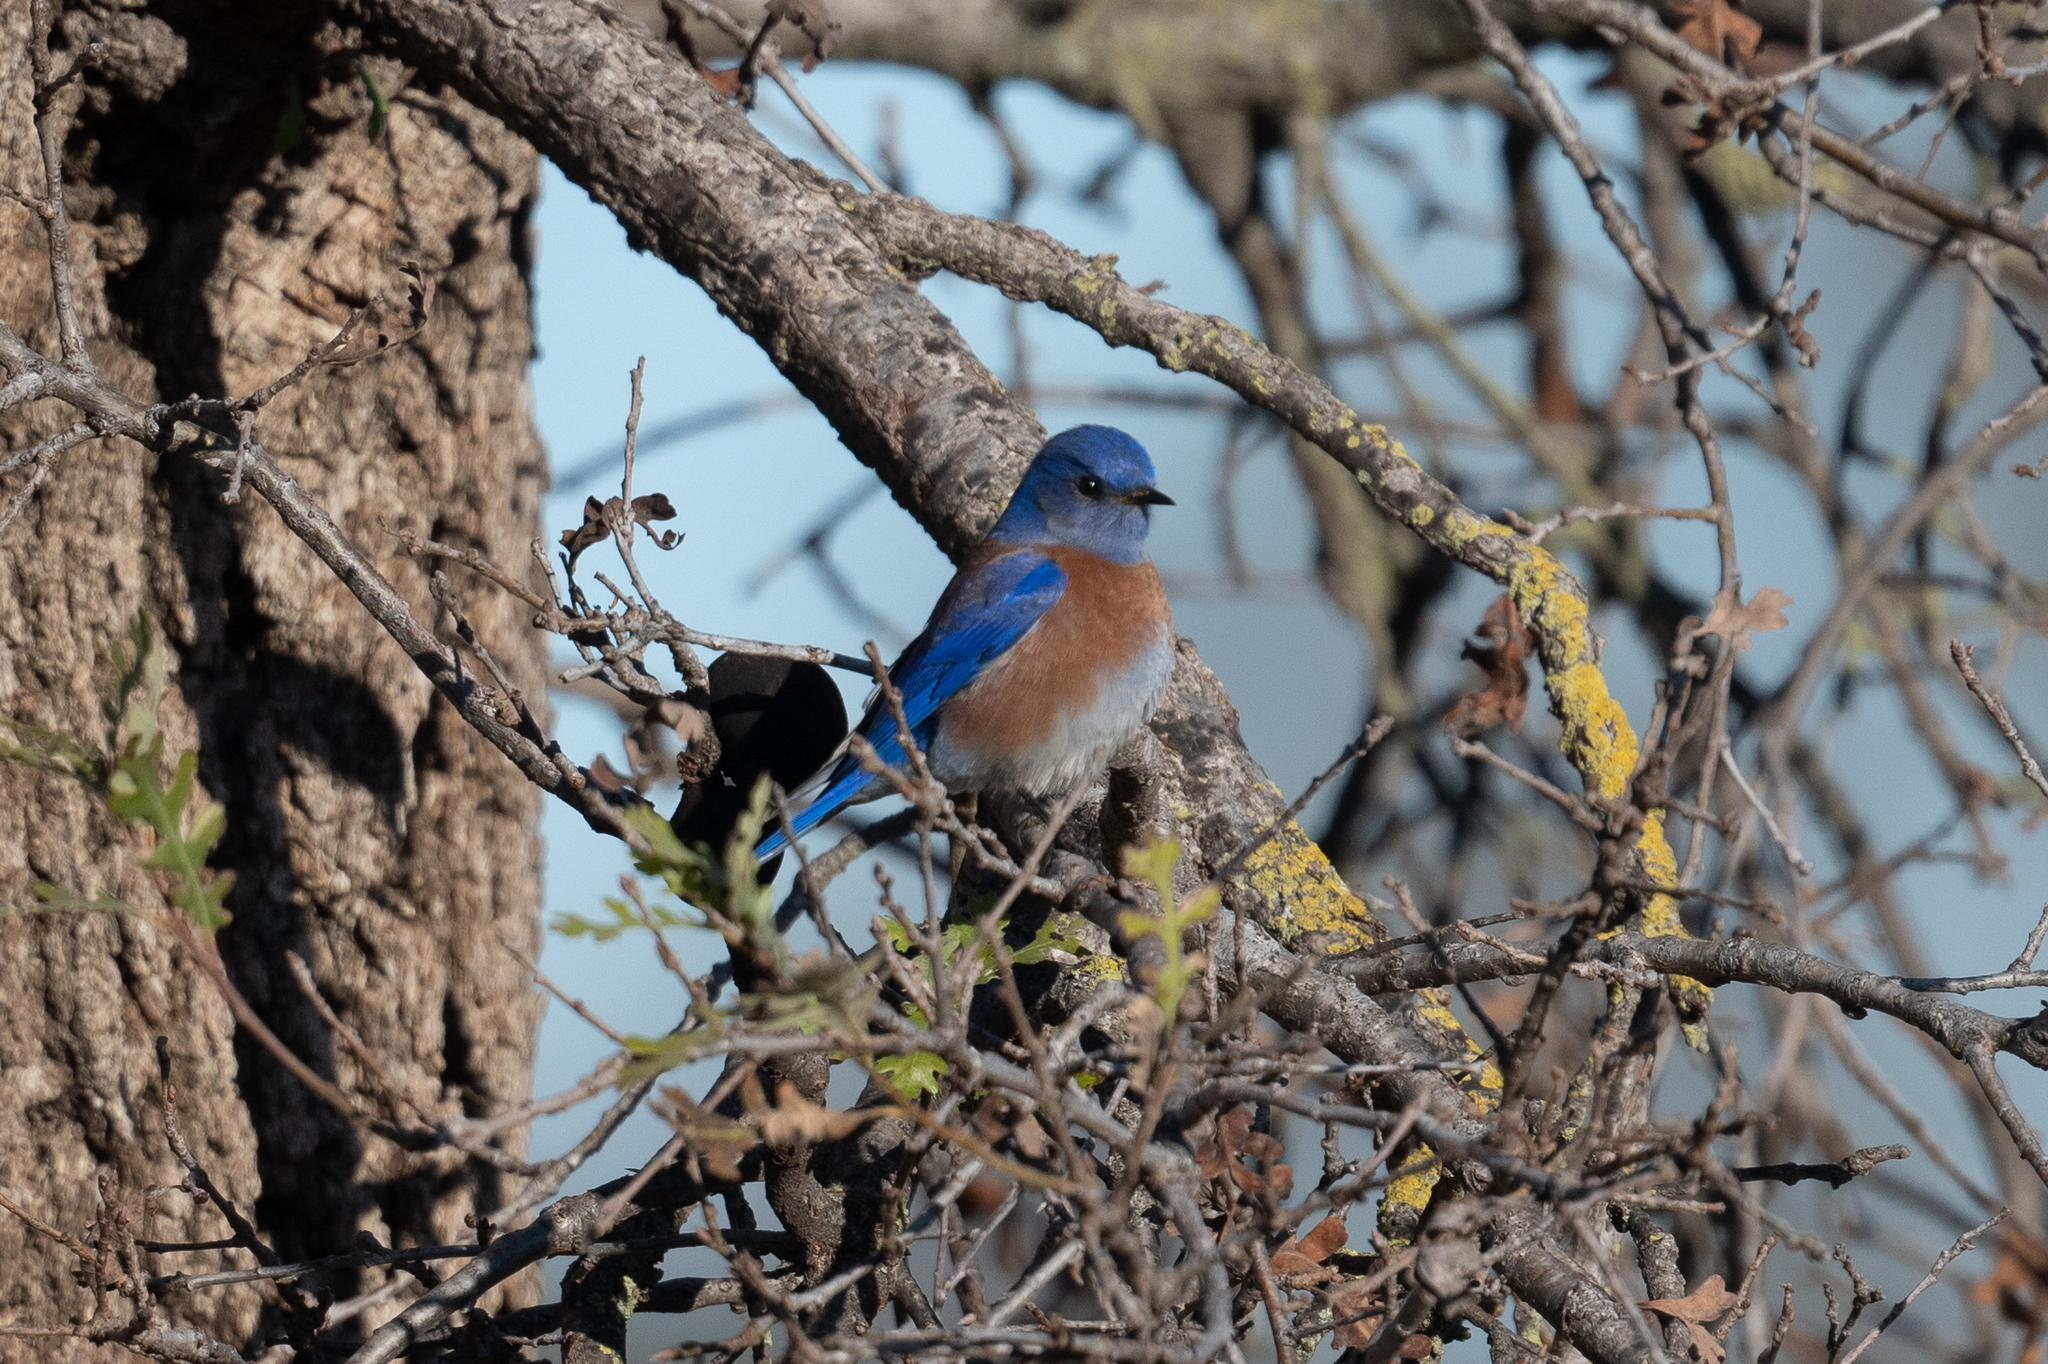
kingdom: Animalia
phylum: Chordata
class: Aves
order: Passeriformes
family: Turdidae
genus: Sialia
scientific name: Sialia mexicana
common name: Western bluebird
